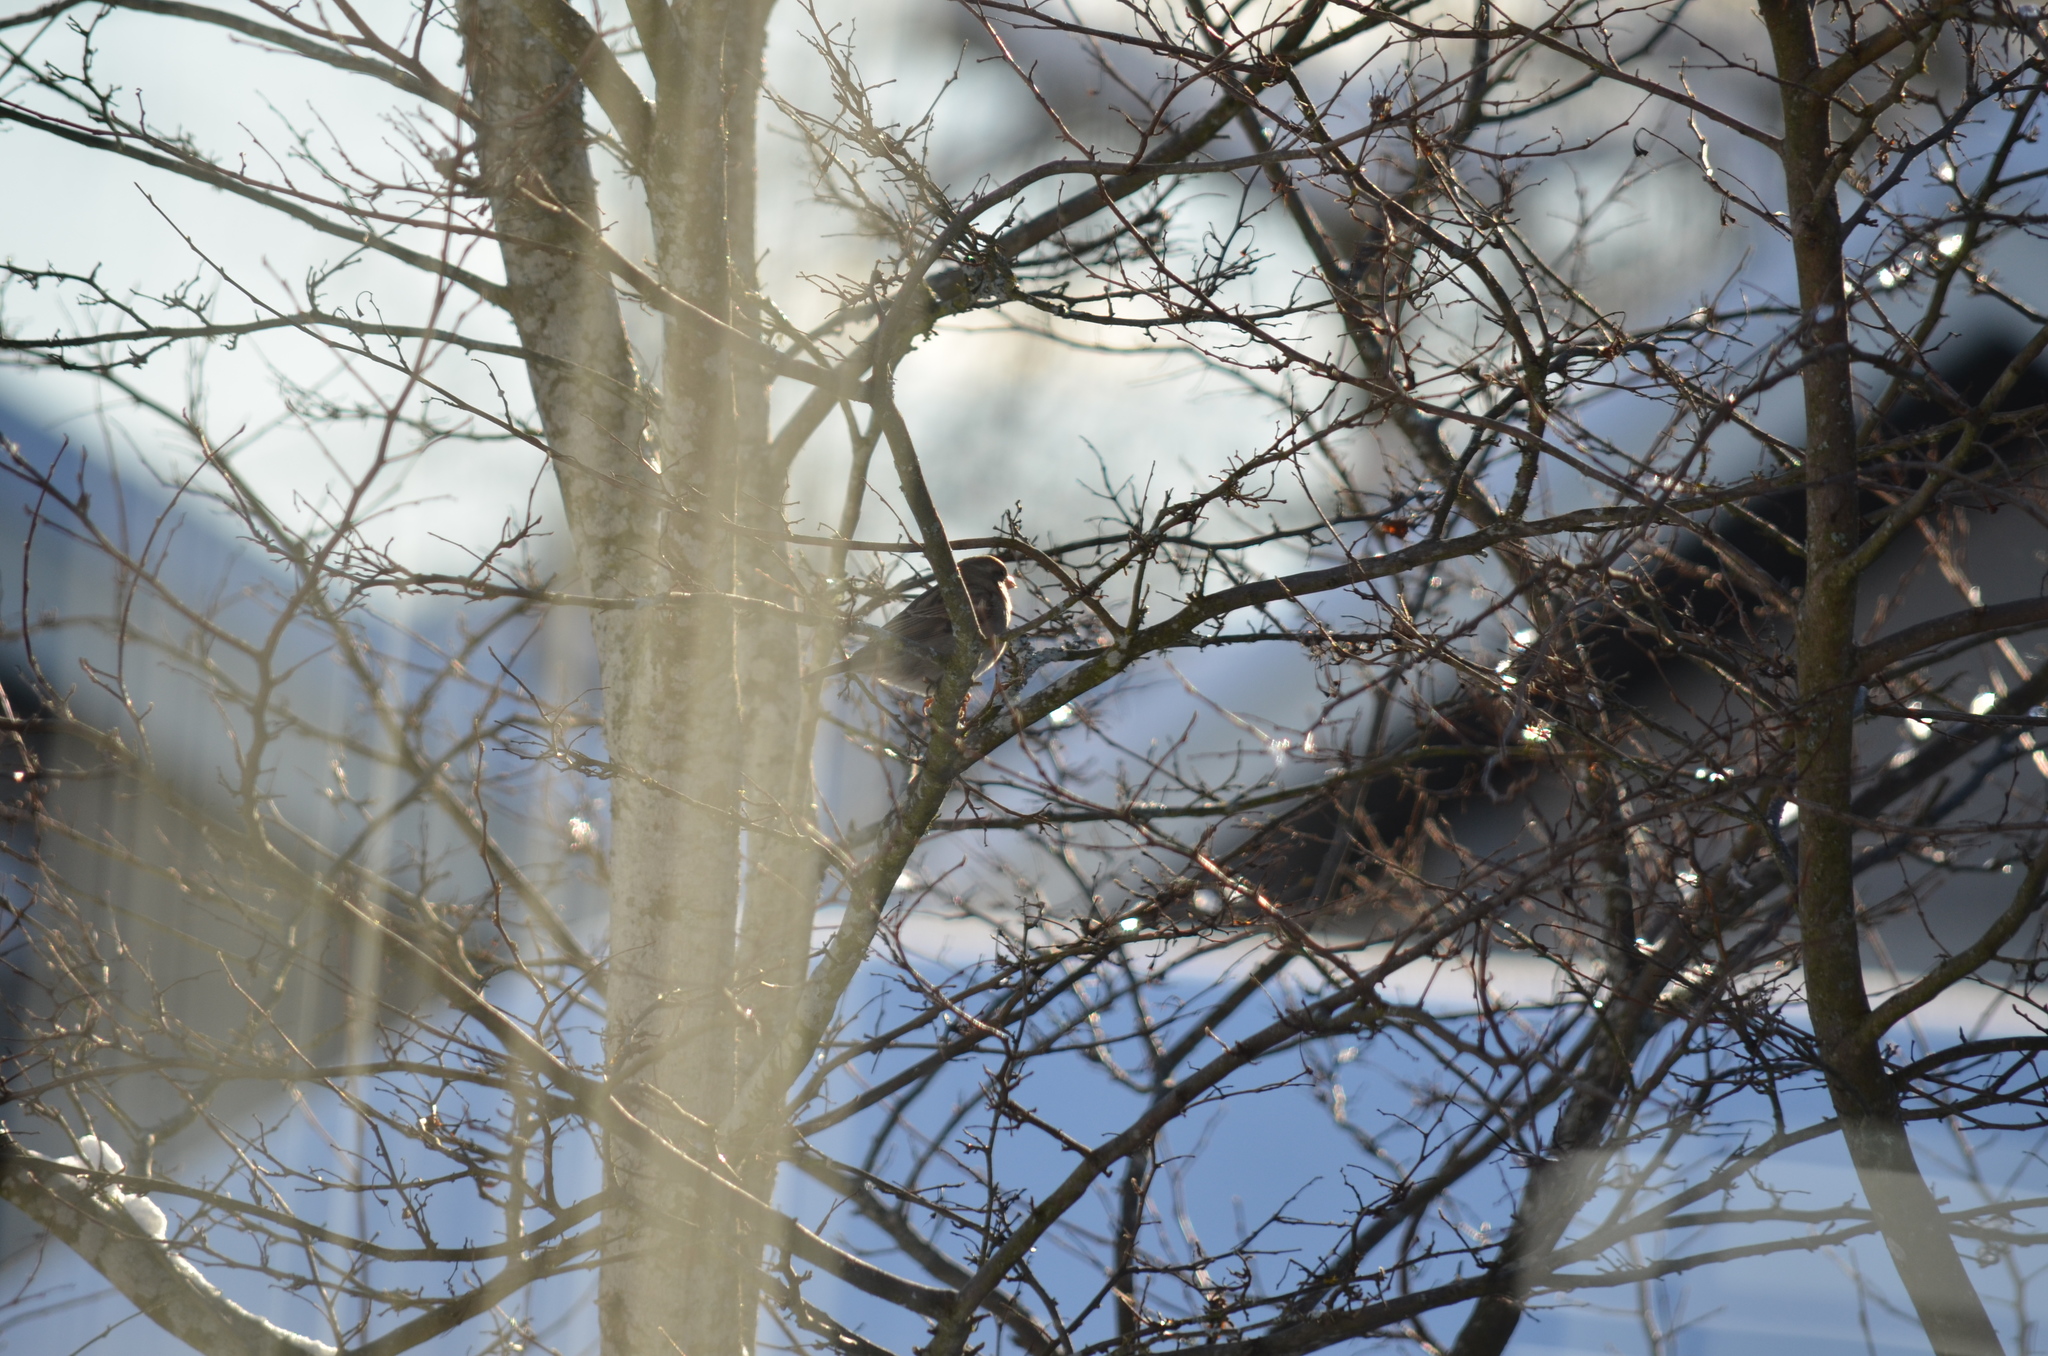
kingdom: Animalia
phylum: Chordata
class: Aves
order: Passeriformes
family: Passeridae
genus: Passer
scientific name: Passer domesticus
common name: House sparrow
